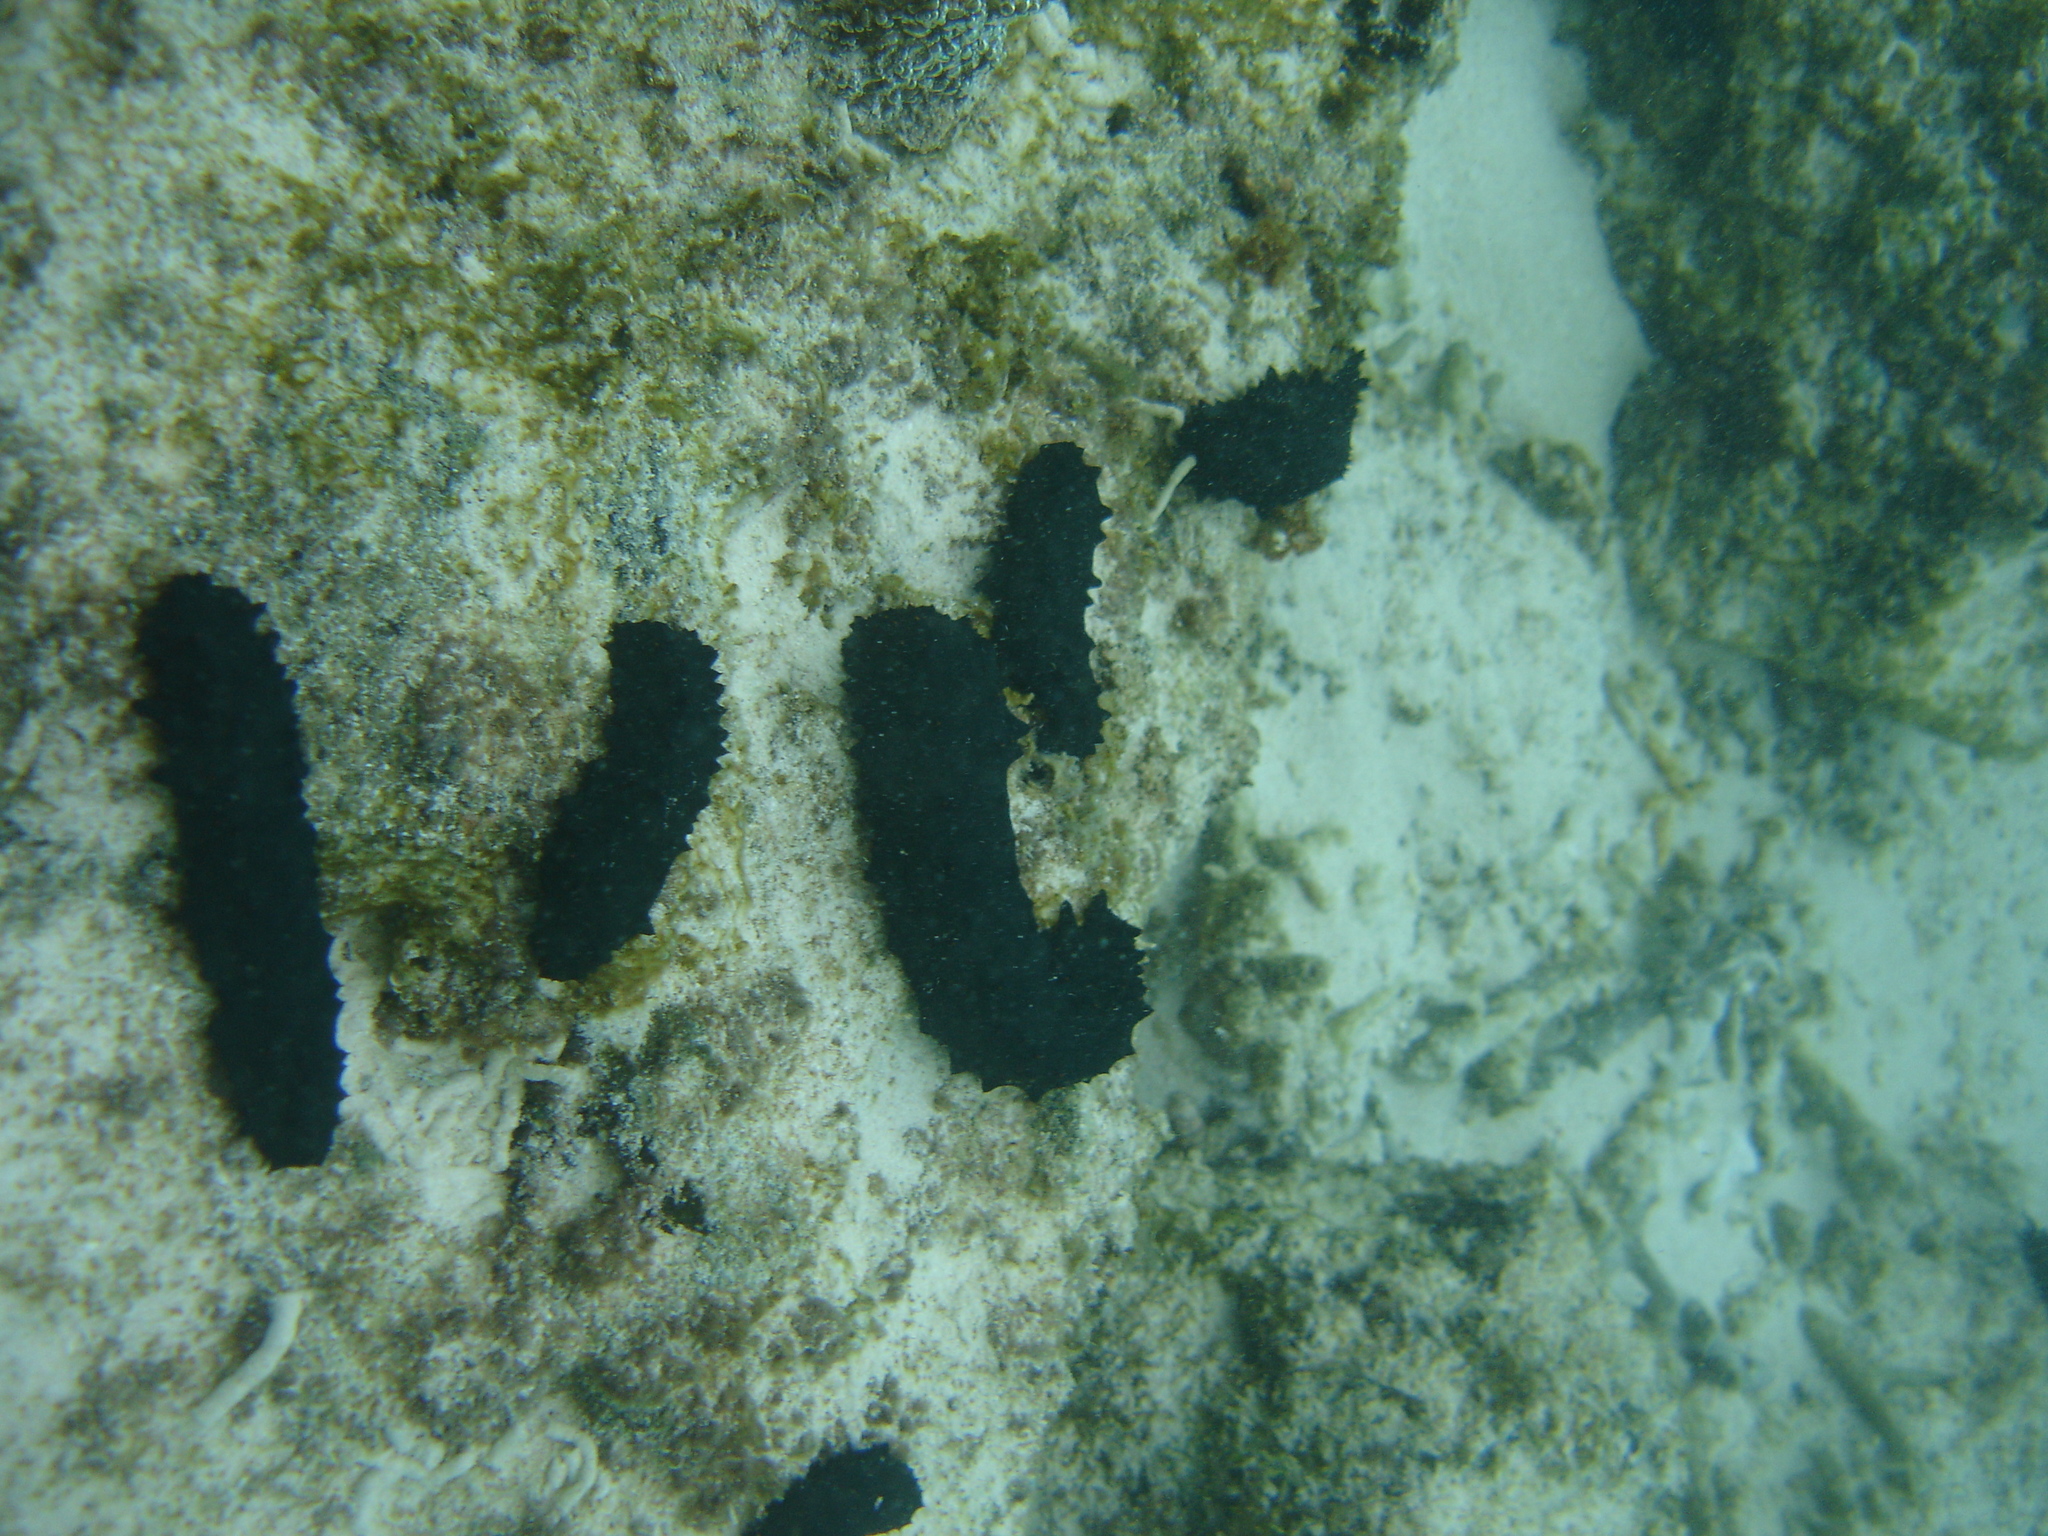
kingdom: Animalia
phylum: Echinodermata
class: Holothuroidea
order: Synallactida
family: Stichopodidae
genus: Stichopus
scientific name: Stichopus chloronotus
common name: Greenfish
